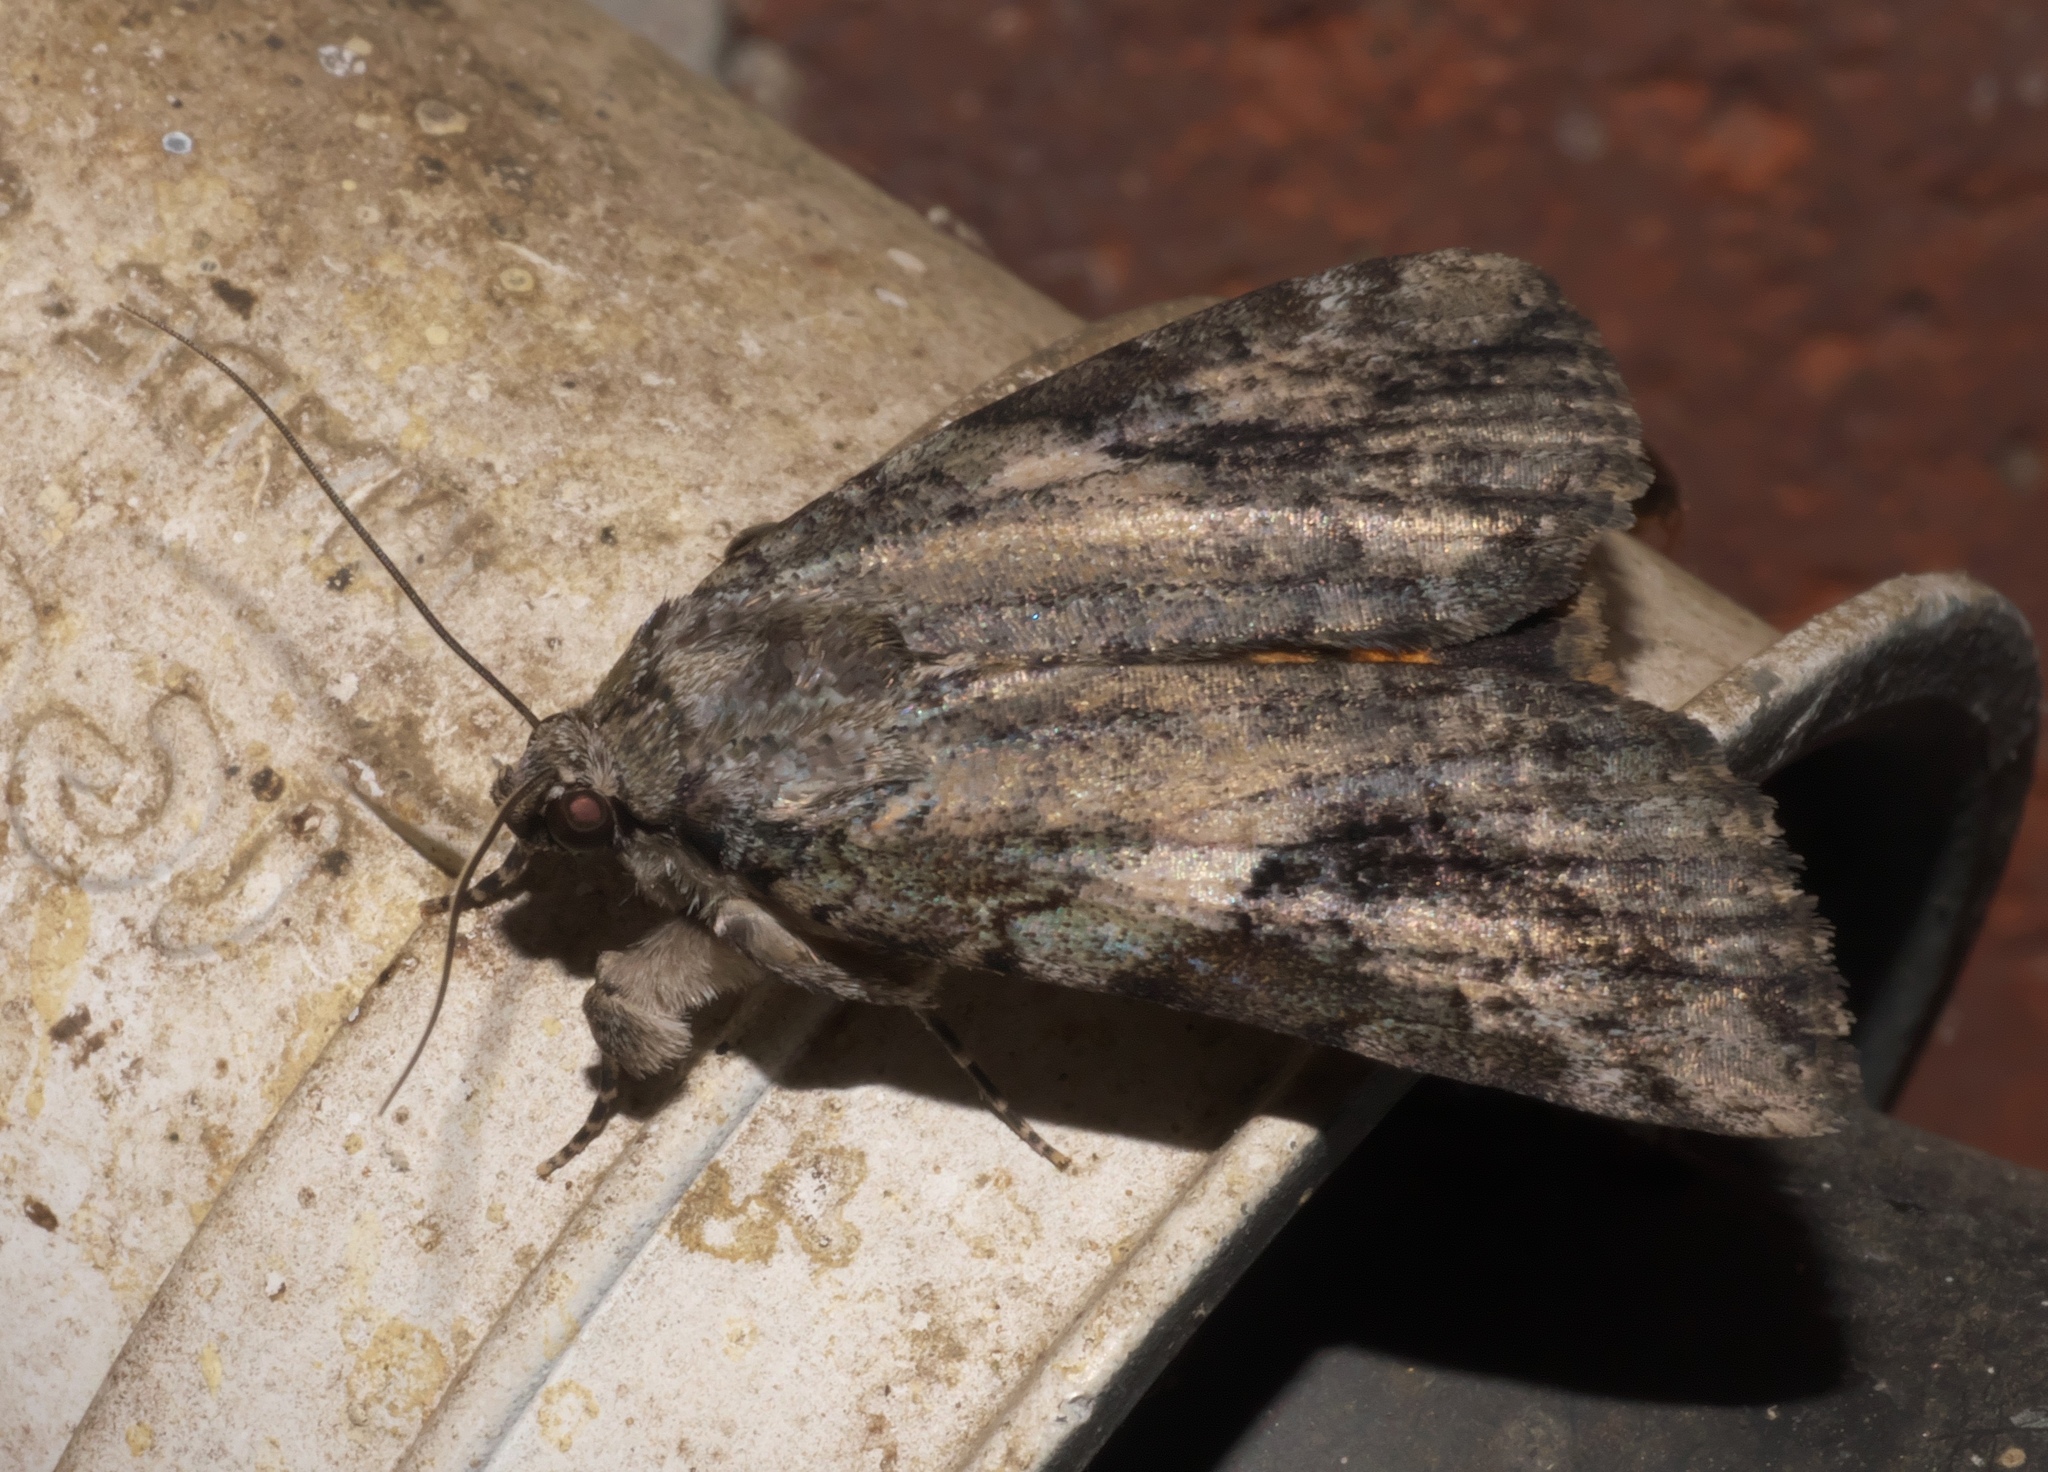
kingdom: Animalia
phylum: Arthropoda
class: Insecta
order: Lepidoptera
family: Erebidae
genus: Catocala
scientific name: Catocala micronympha
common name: Little nymph underwing
